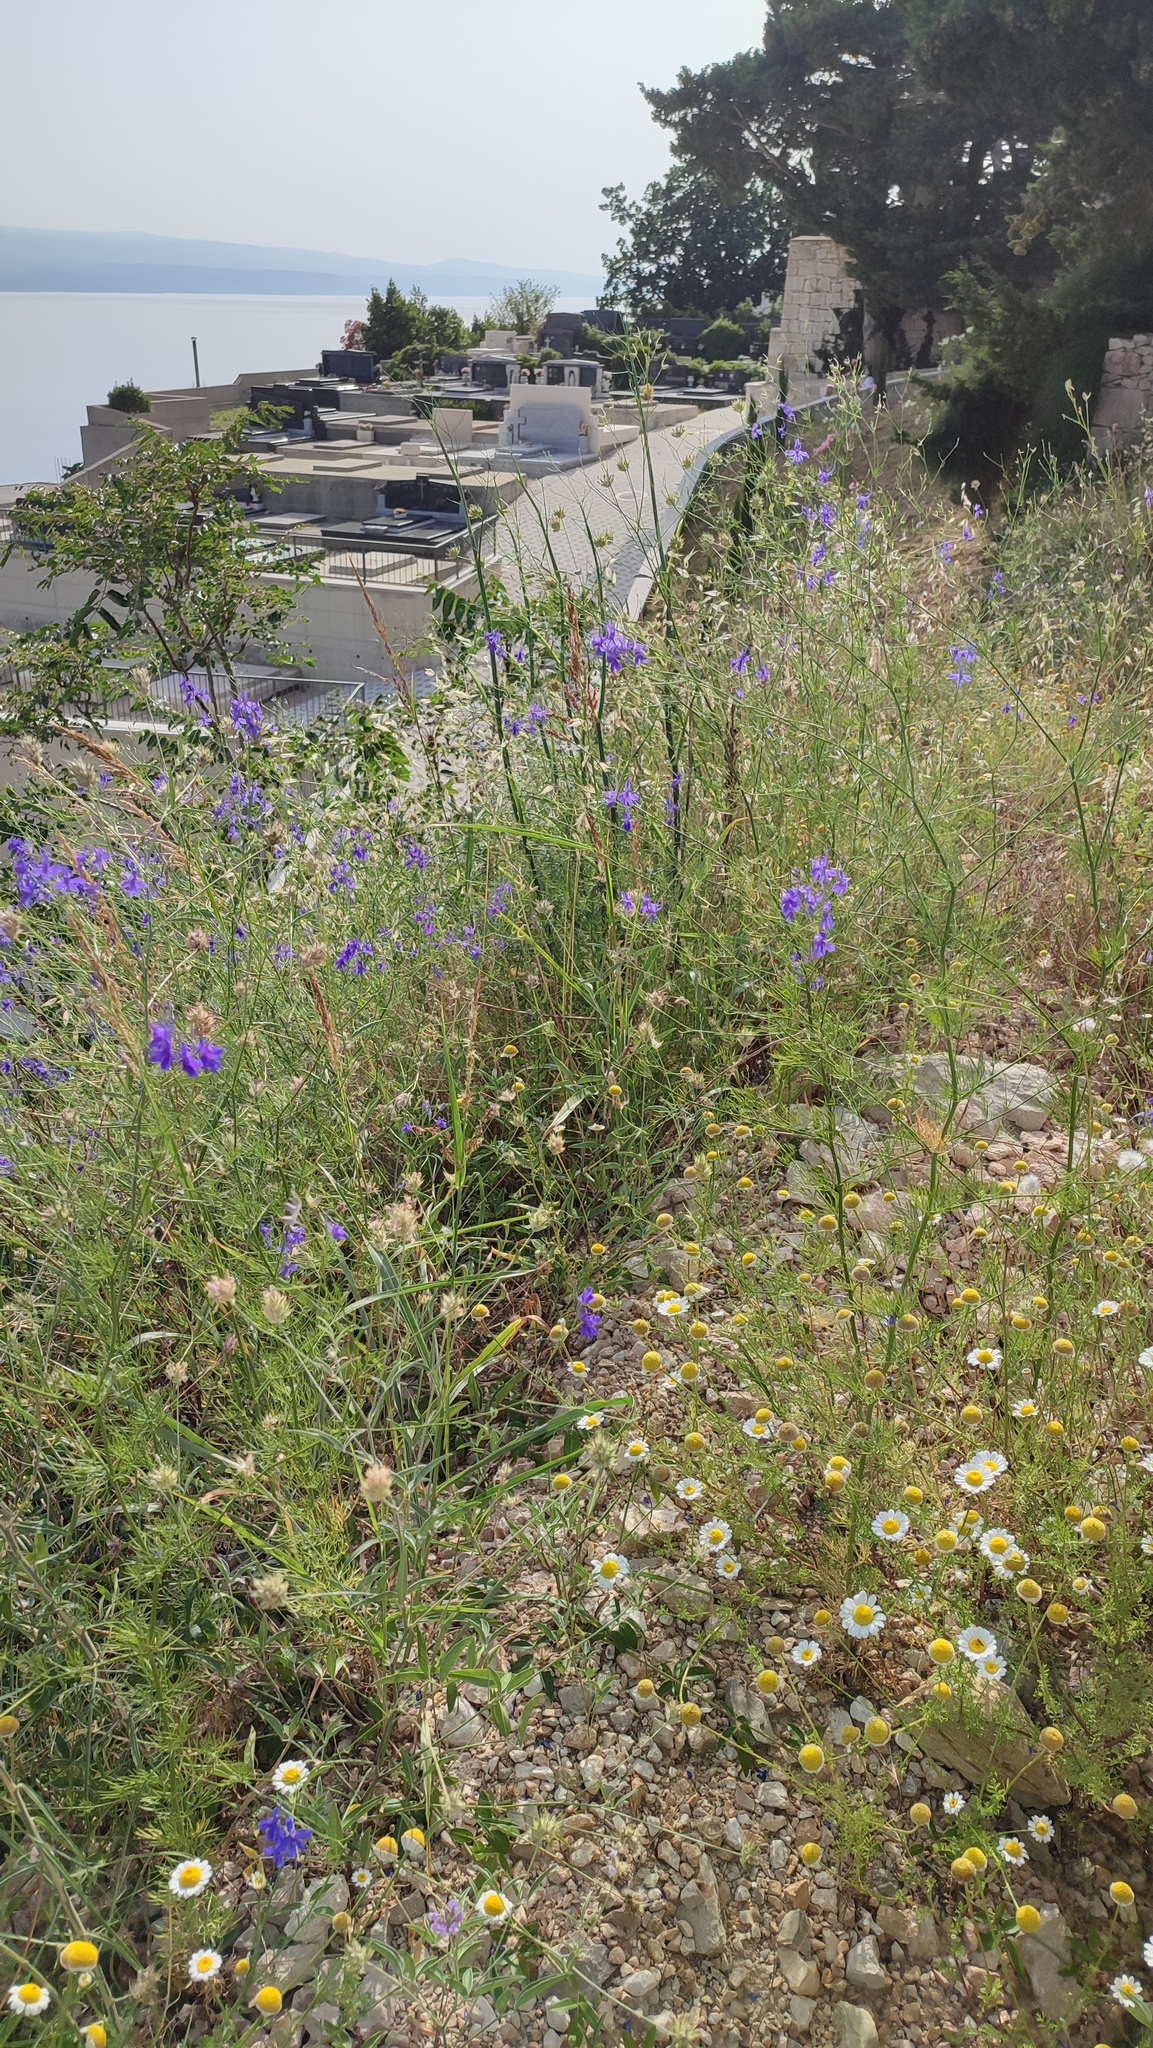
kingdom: Plantae
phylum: Tracheophyta
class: Magnoliopsida
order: Ranunculales
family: Ranunculaceae
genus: Delphinium
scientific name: Delphinium consolida
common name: Branching larkspur
